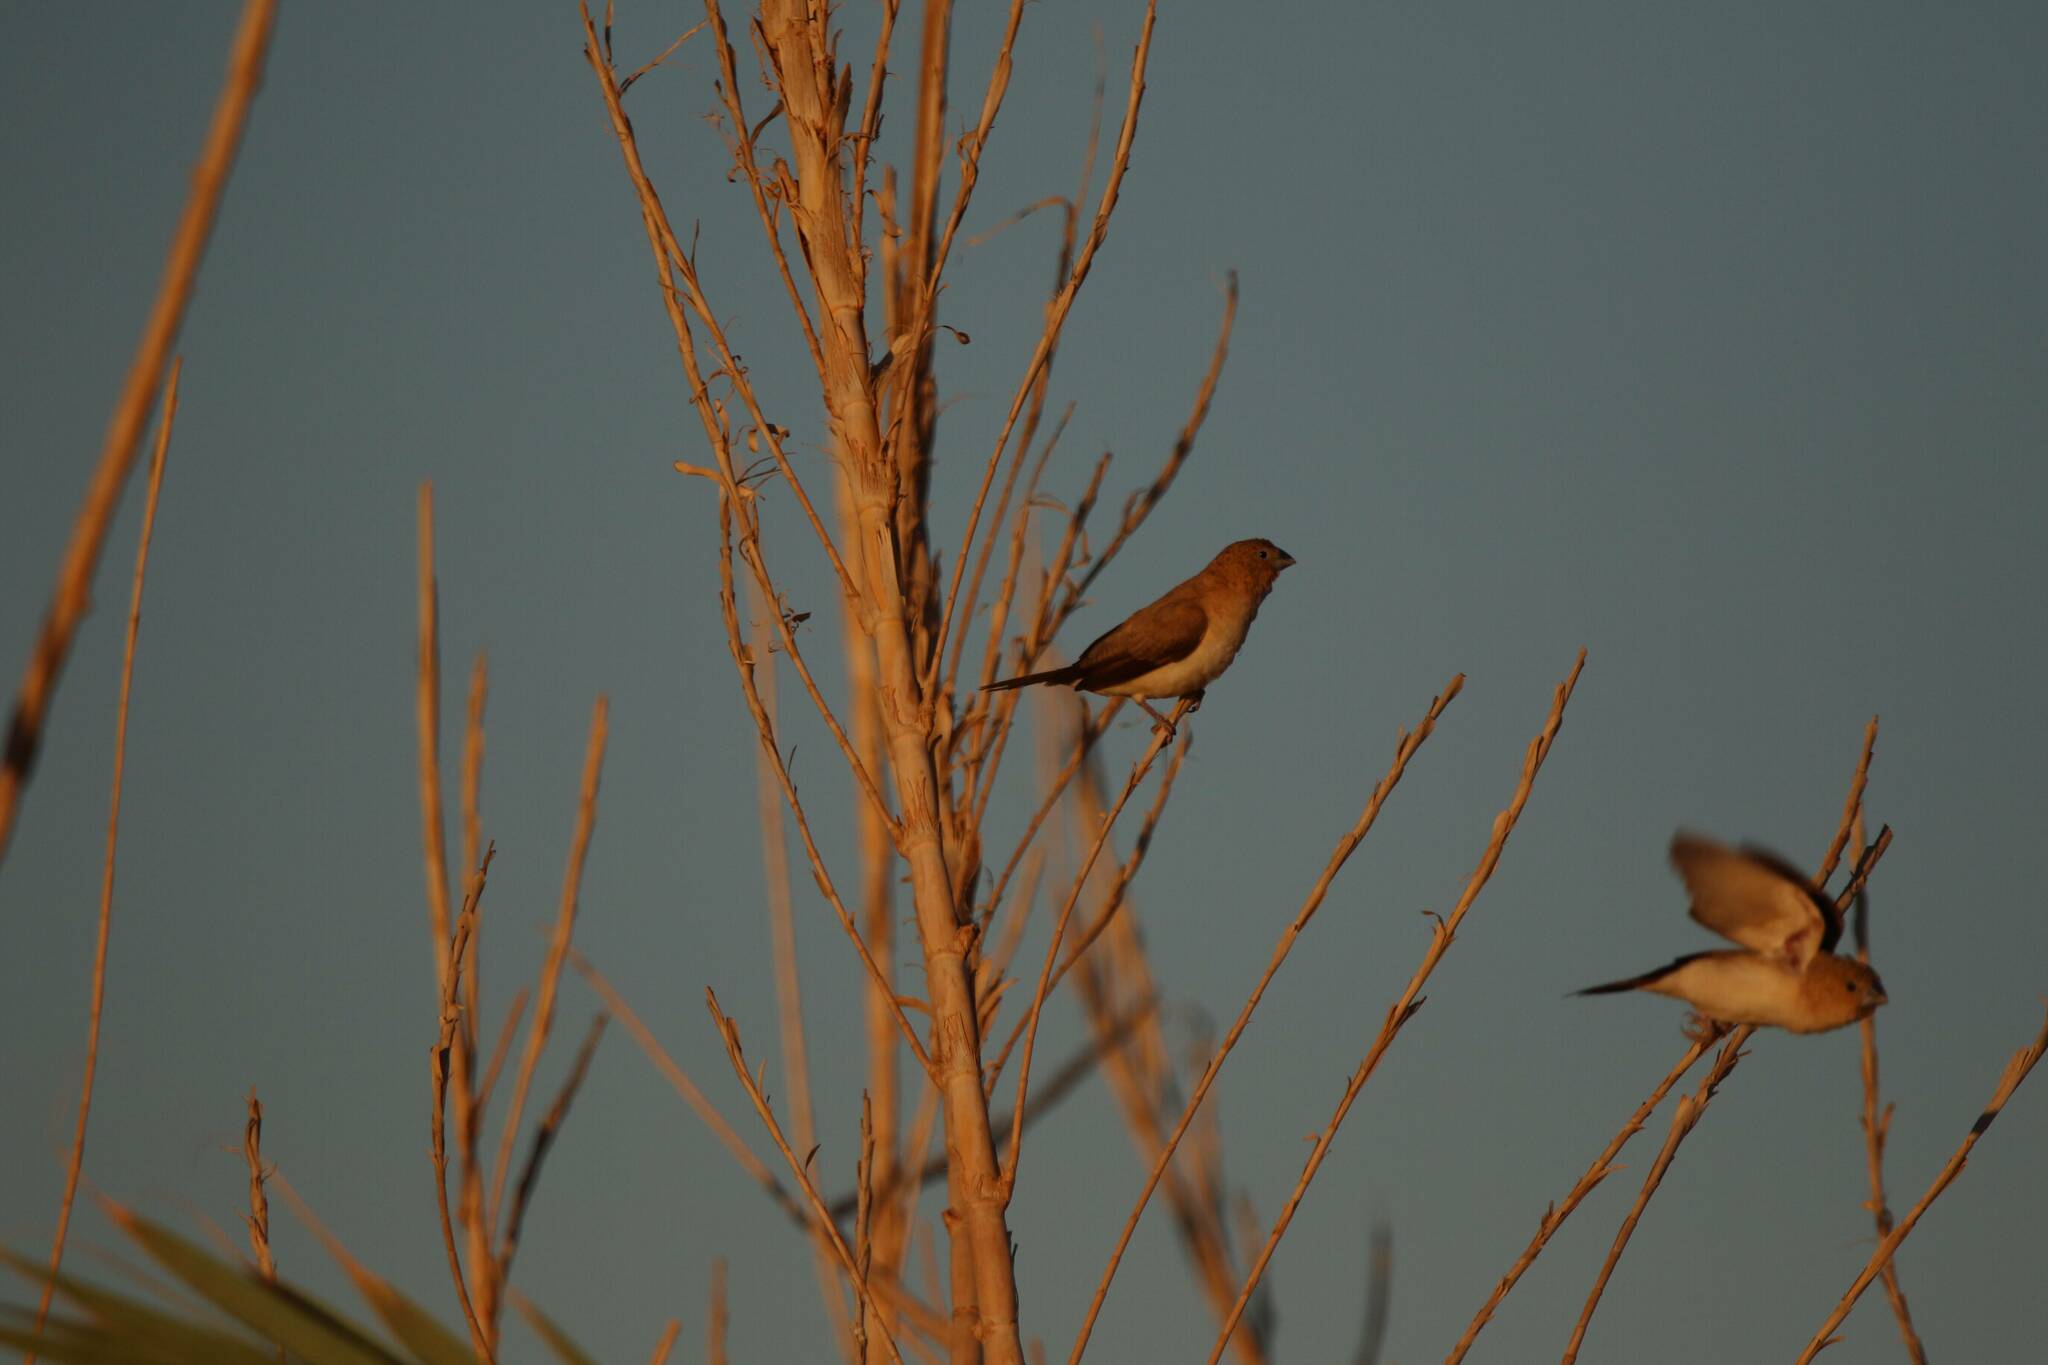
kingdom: Animalia
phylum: Chordata
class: Aves
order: Passeriformes
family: Estrildidae
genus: Euodice
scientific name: Euodice cantans
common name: African silverbill
